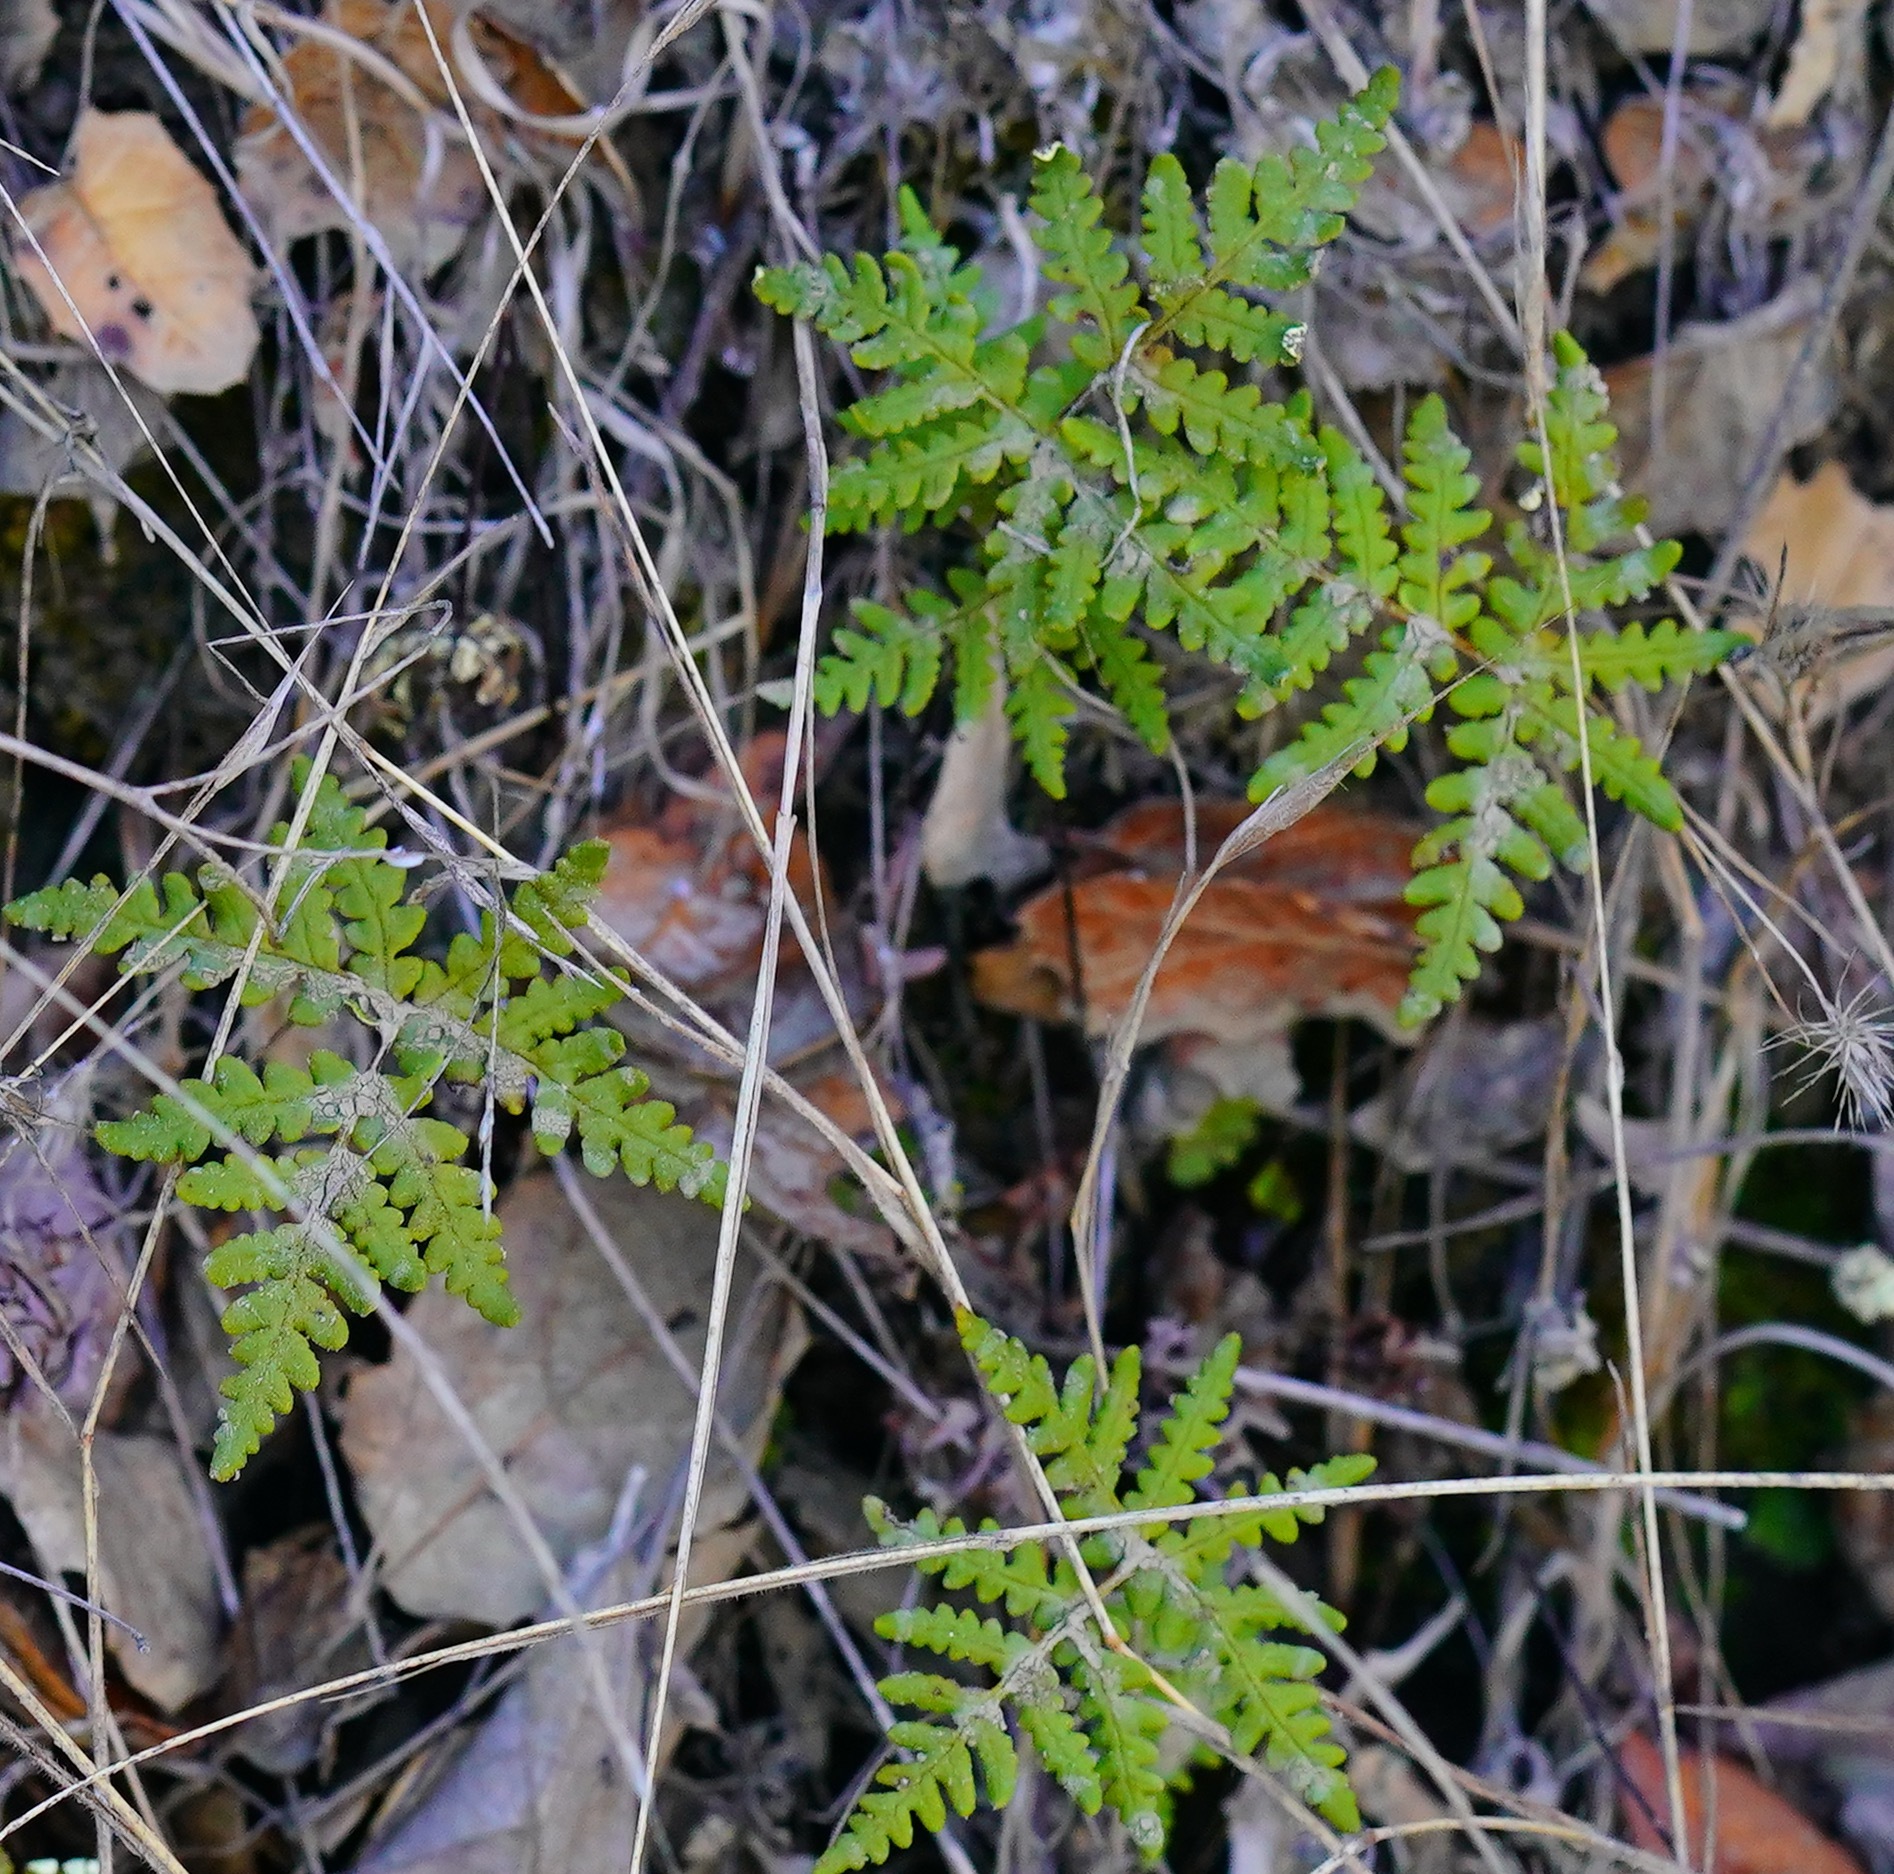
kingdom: Plantae
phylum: Tracheophyta
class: Polypodiopsida
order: Polypodiales
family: Pteridaceae
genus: Pentagramma
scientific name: Pentagramma triangularis
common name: Gold fern
